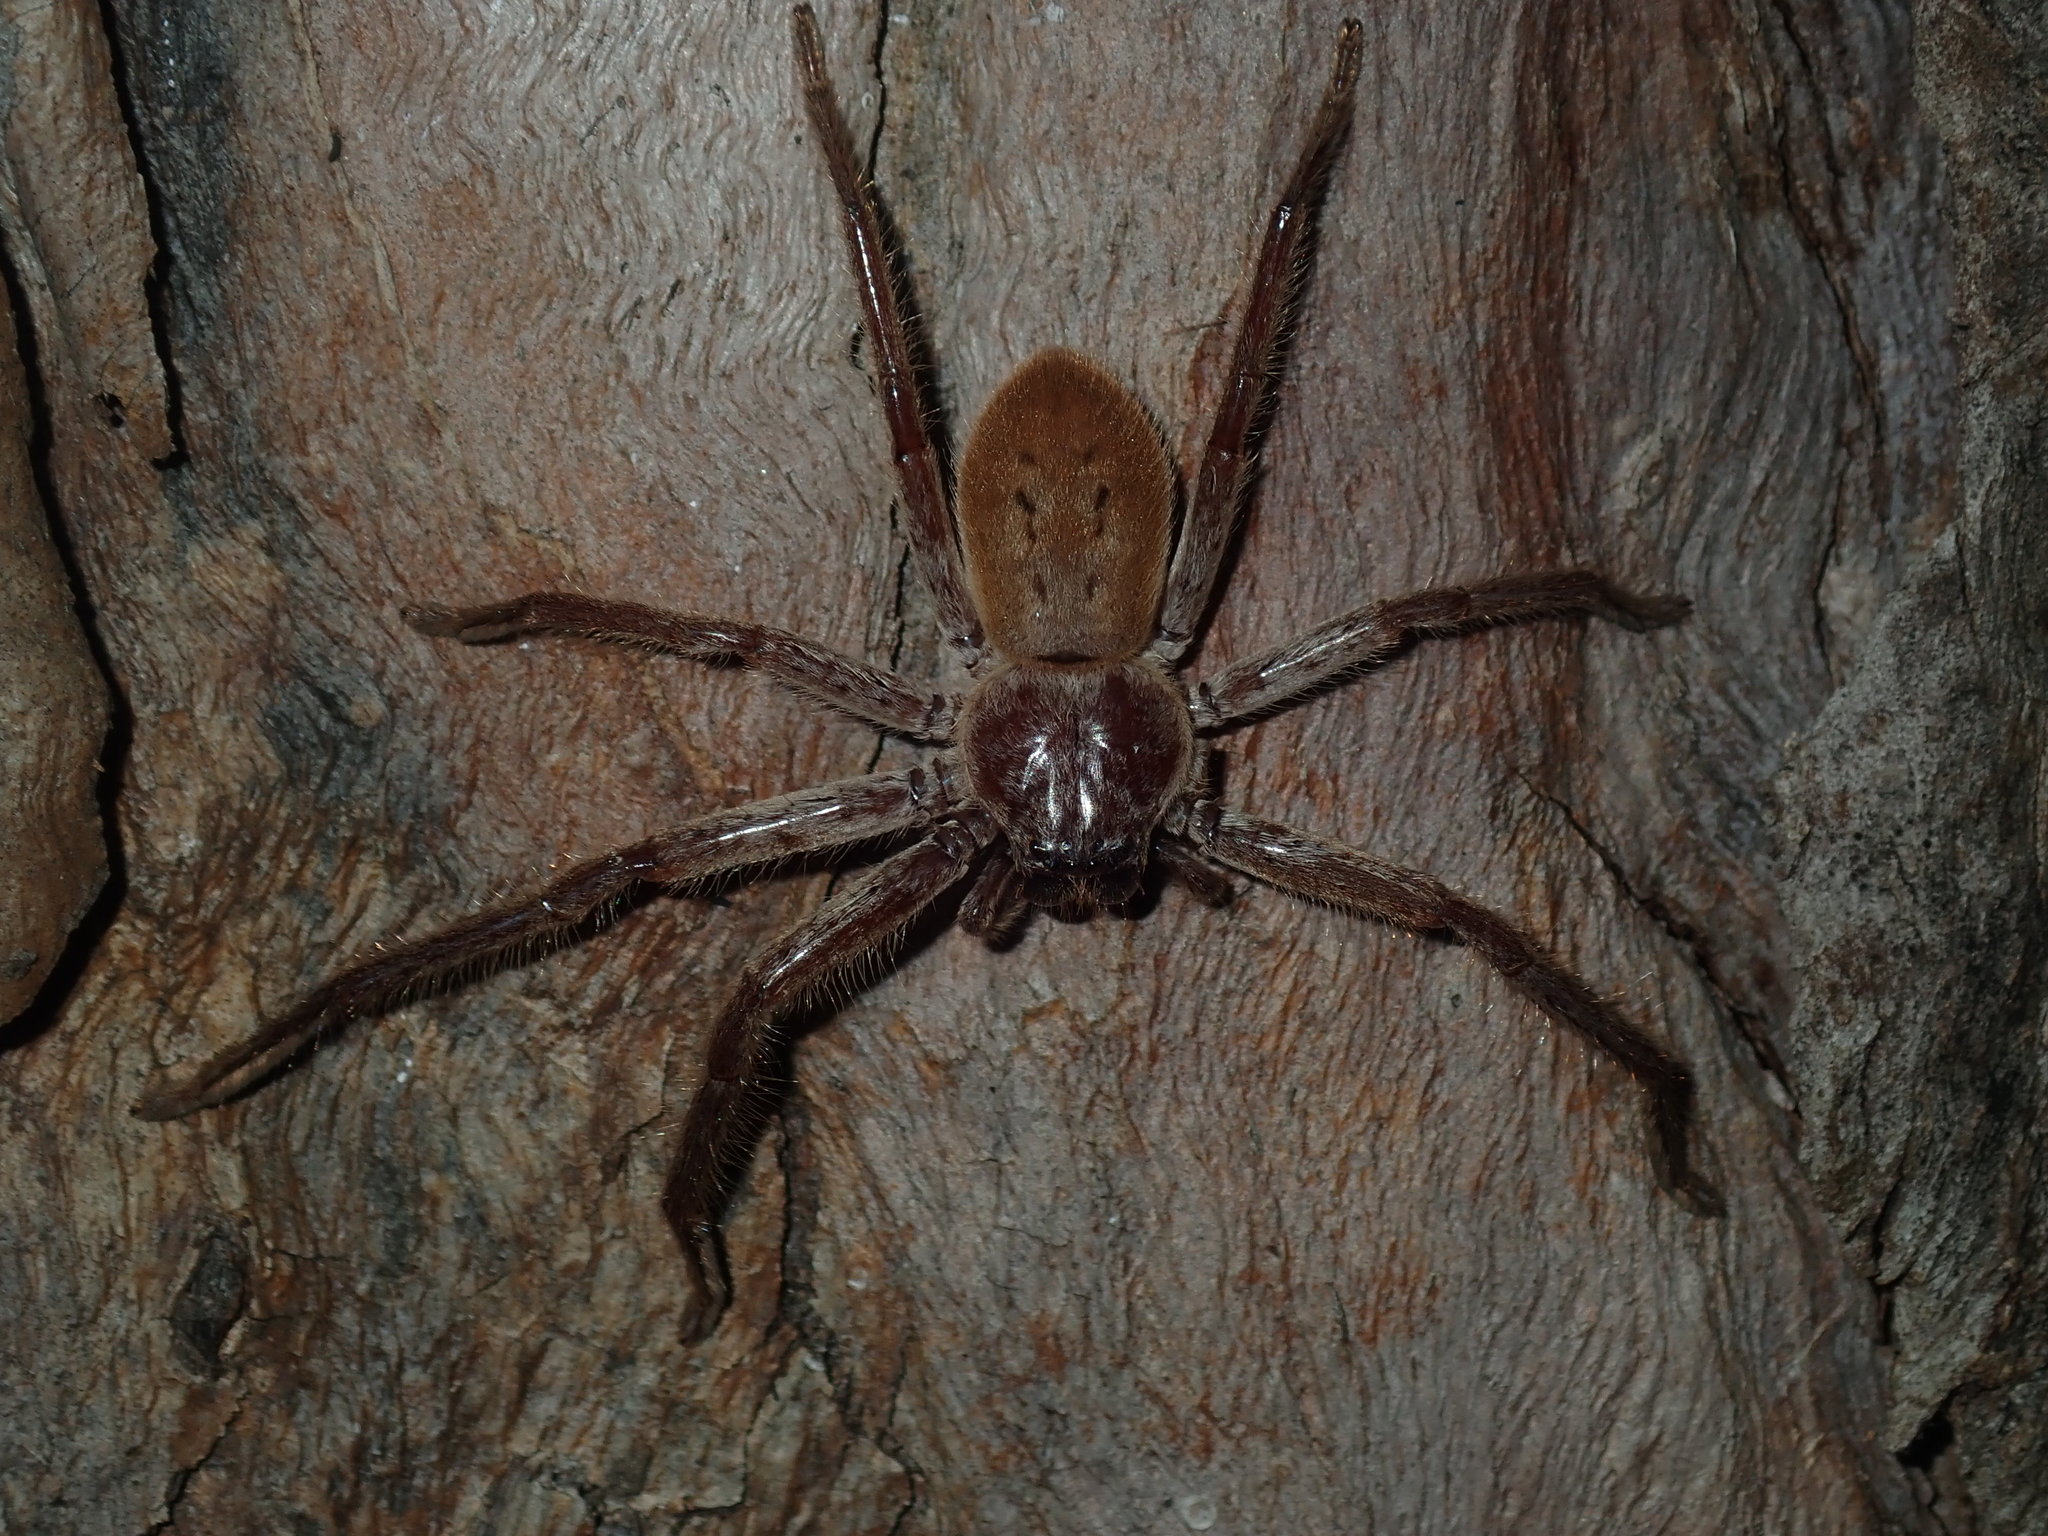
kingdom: Animalia
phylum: Arthropoda
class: Arachnida
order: Araneae
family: Sparassidae
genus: Isopeda
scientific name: Isopeda villosa
